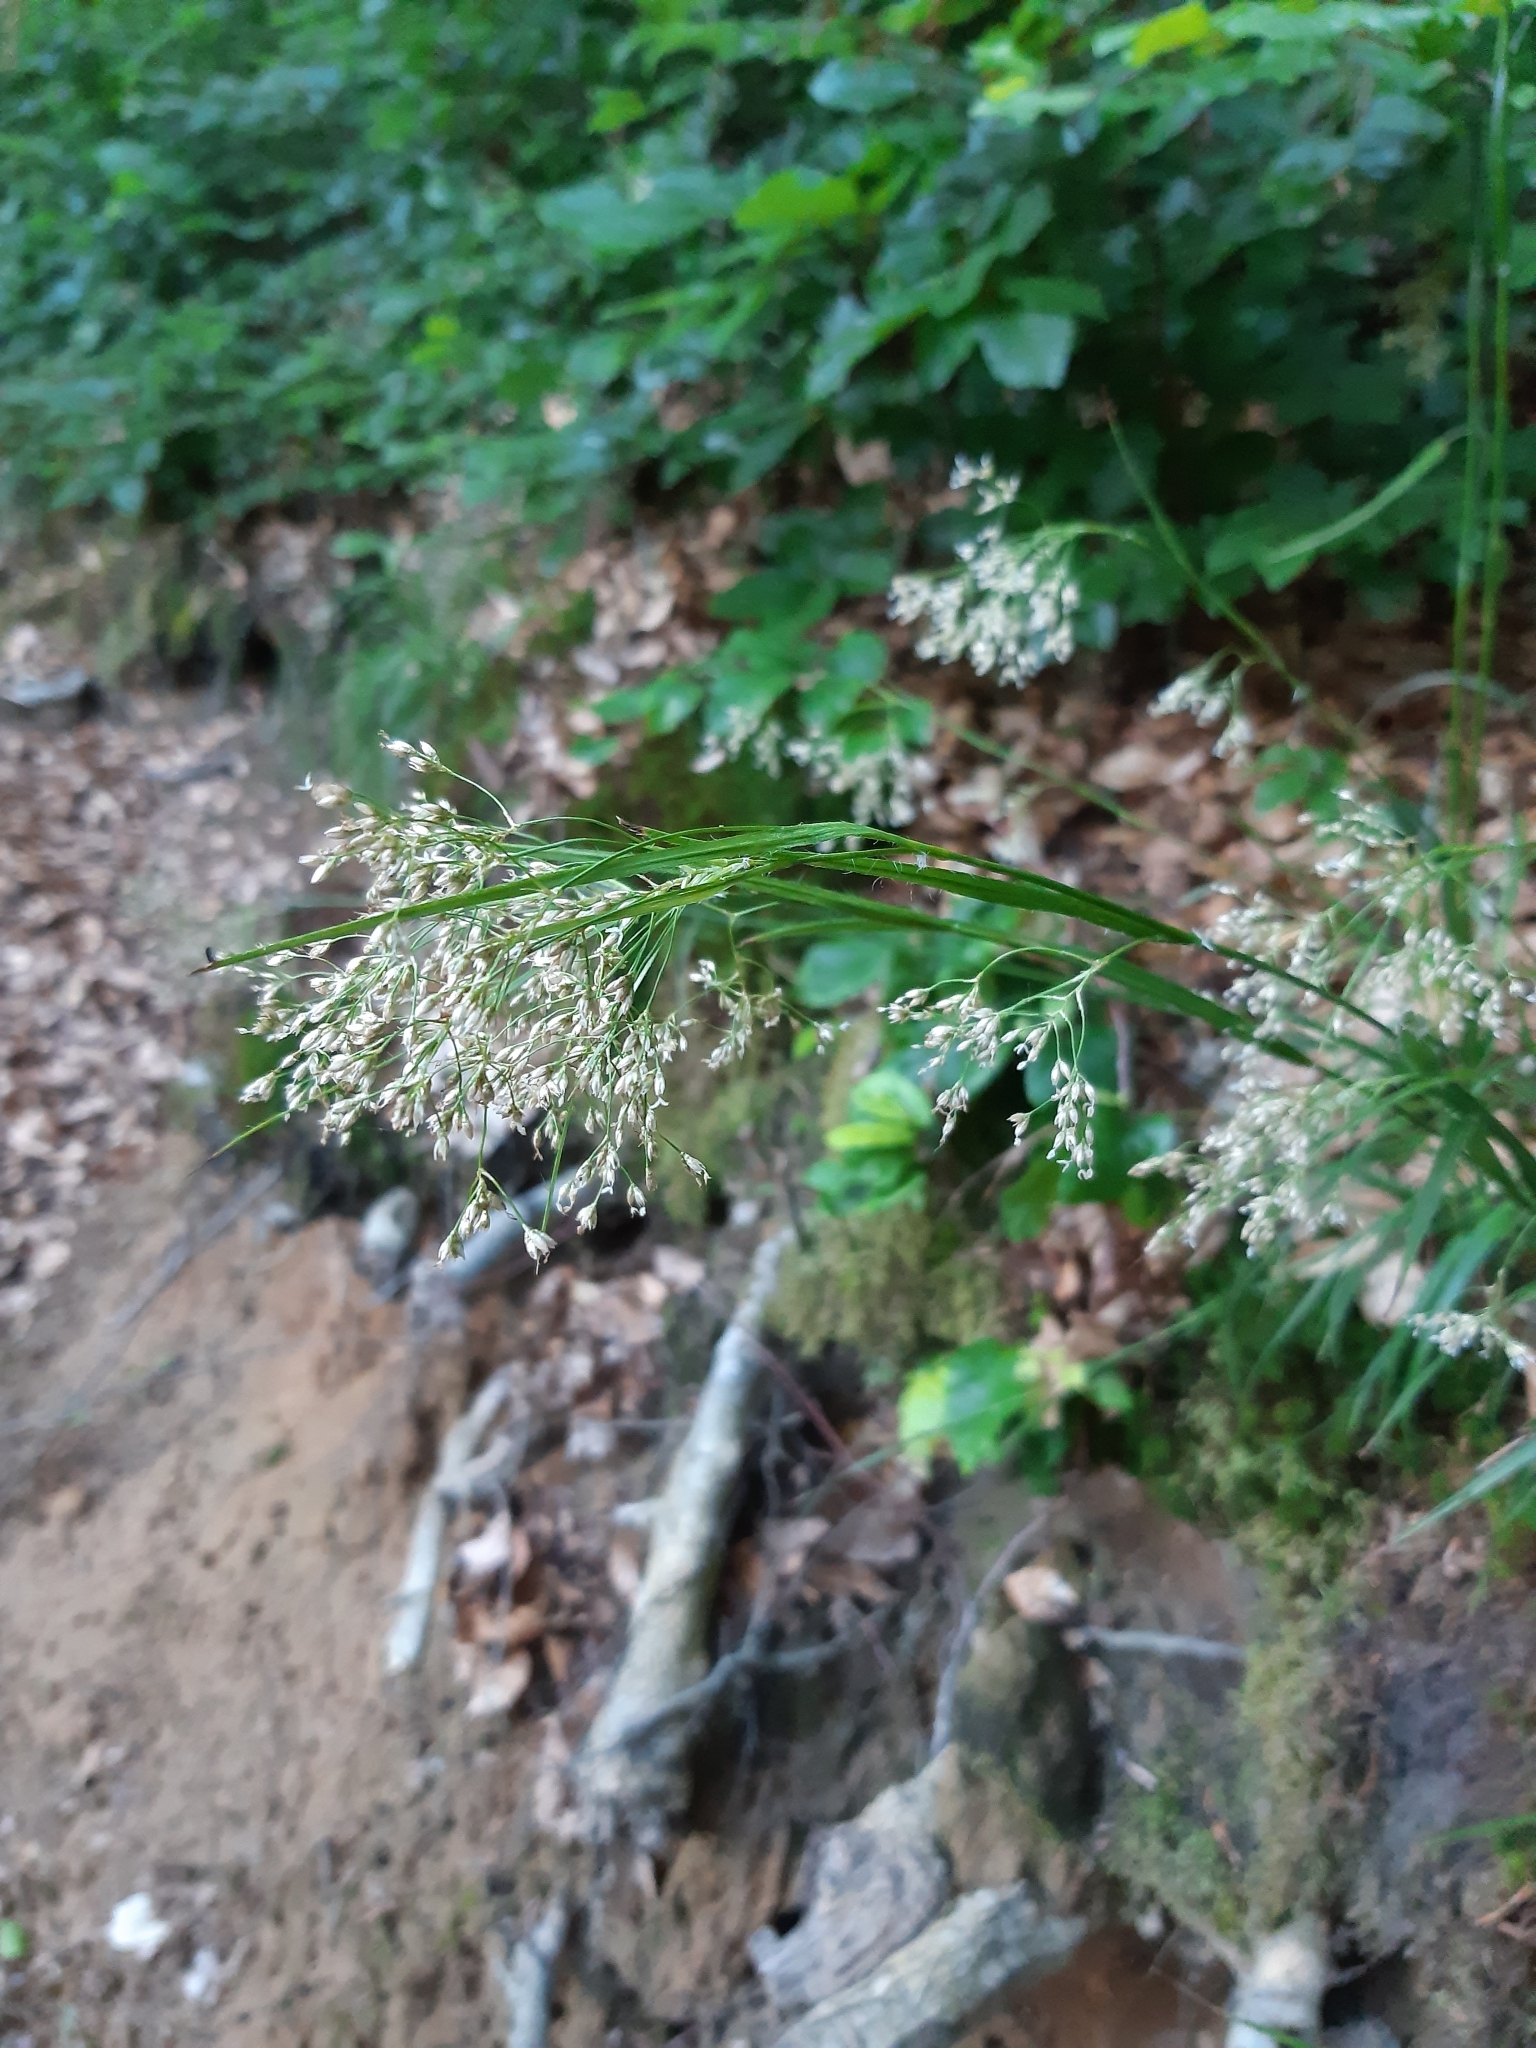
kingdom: Plantae
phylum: Tracheophyta
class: Liliopsida
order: Poales
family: Juncaceae
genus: Luzula
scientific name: Luzula sylvatica
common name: Great wood-rush
